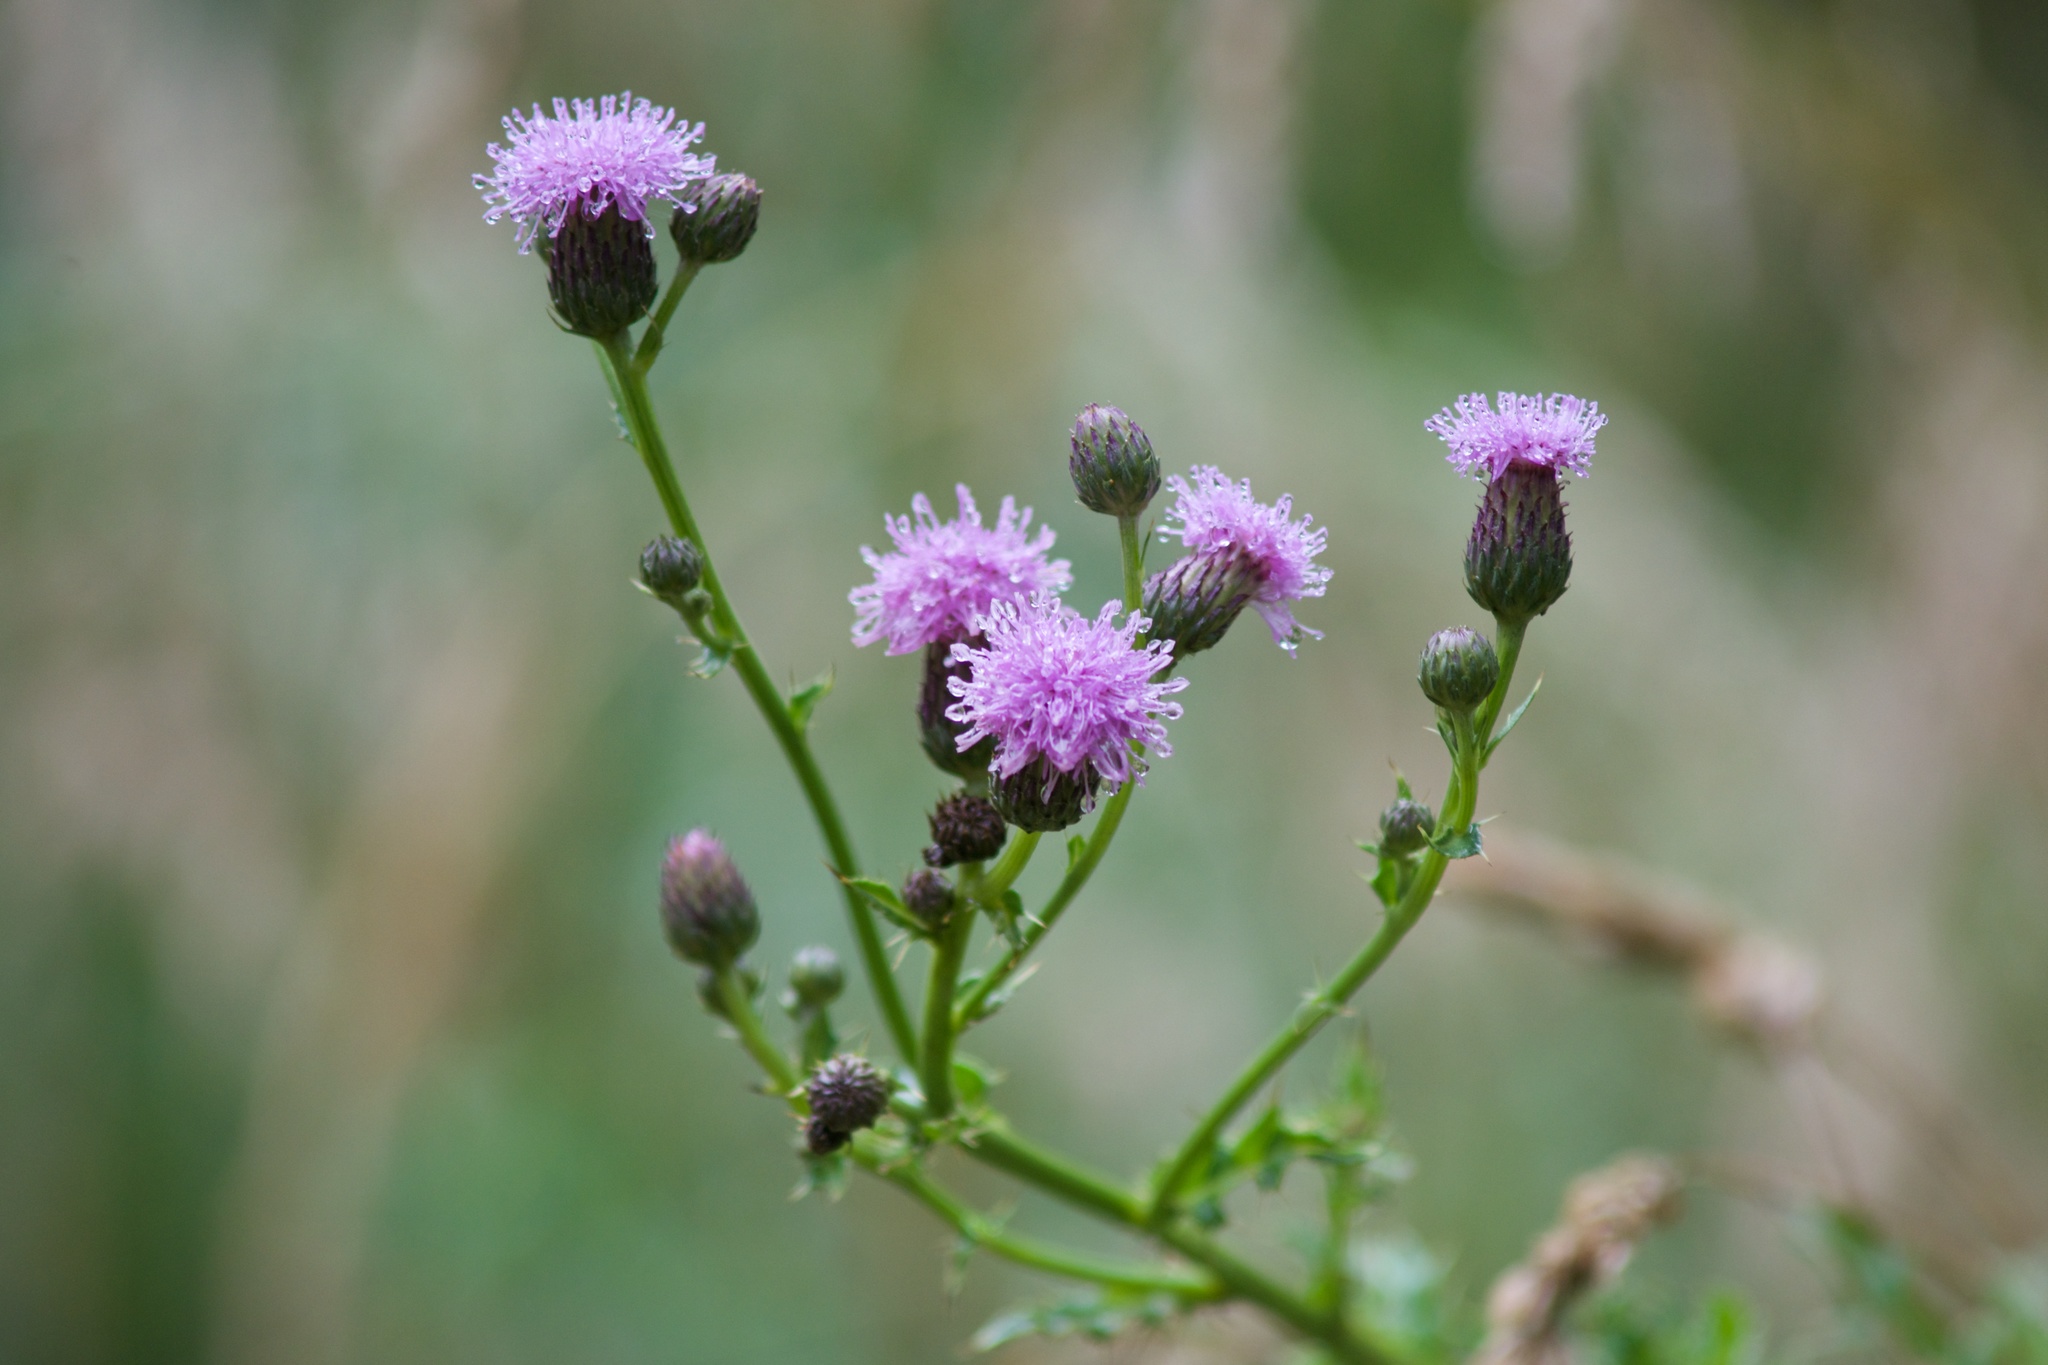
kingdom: Plantae
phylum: Tracheophyta
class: Magnoliopsida
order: Asterales
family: Asteraceae
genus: Cirsium
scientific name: Cirsium arvense
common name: Creeping thistle
